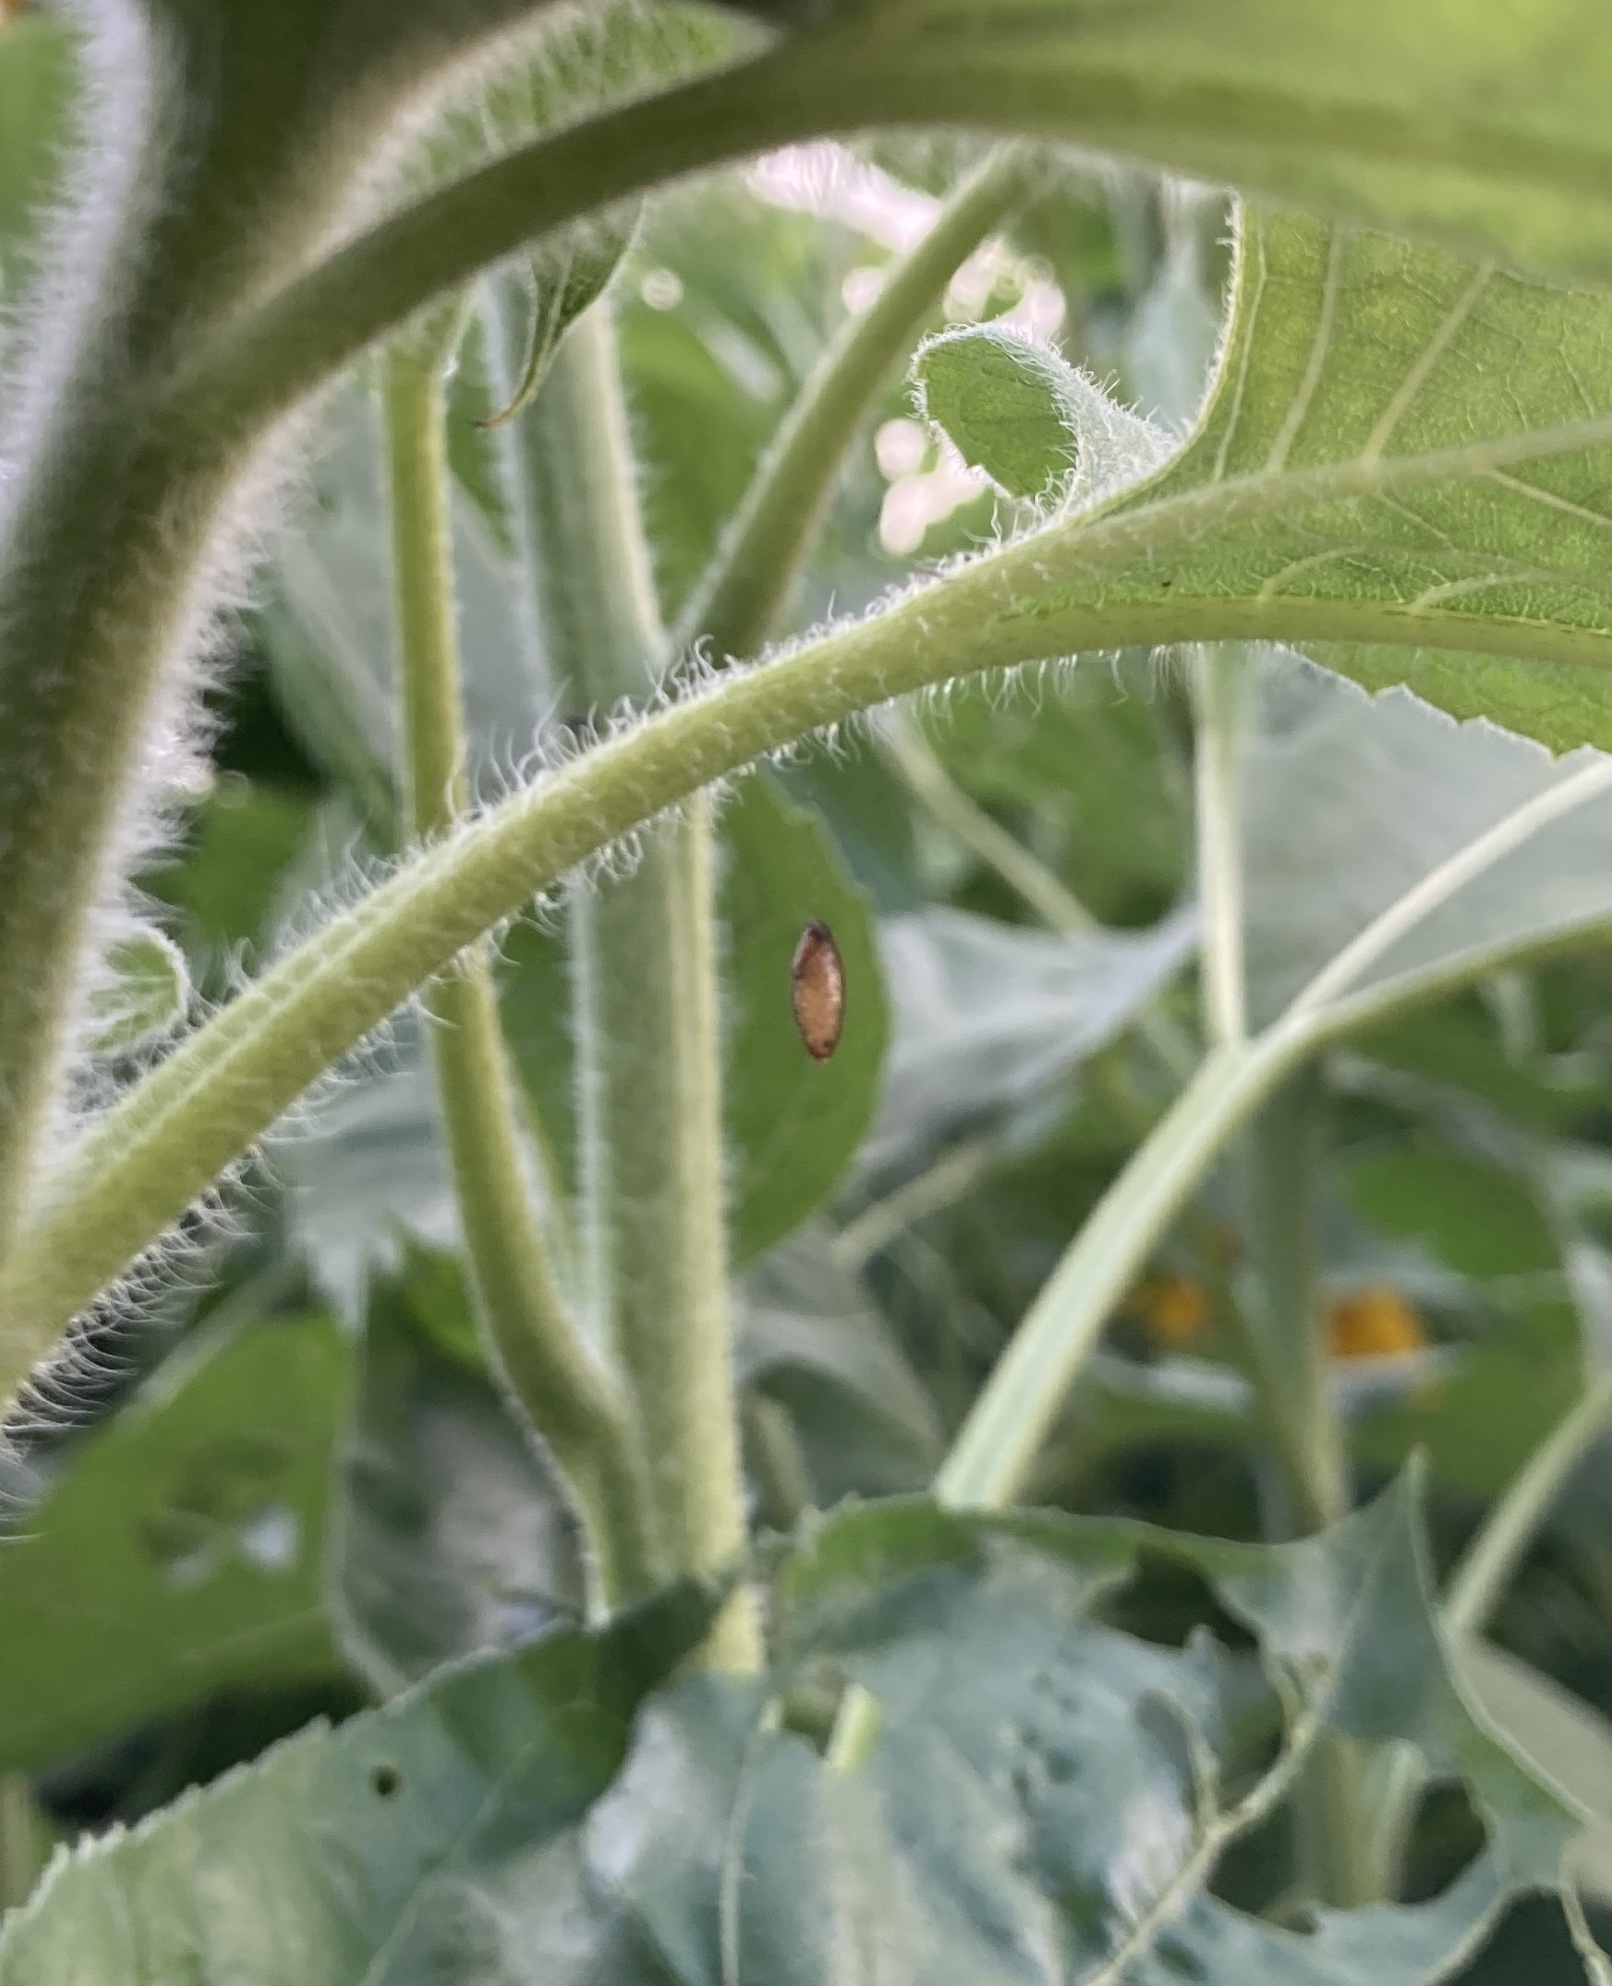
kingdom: Animalia
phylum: Arthropoda
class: Insecta
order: Hymenoptera
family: Braconidae
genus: Meteorus
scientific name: Meteorus pulchricornis
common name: Braconid wasp
